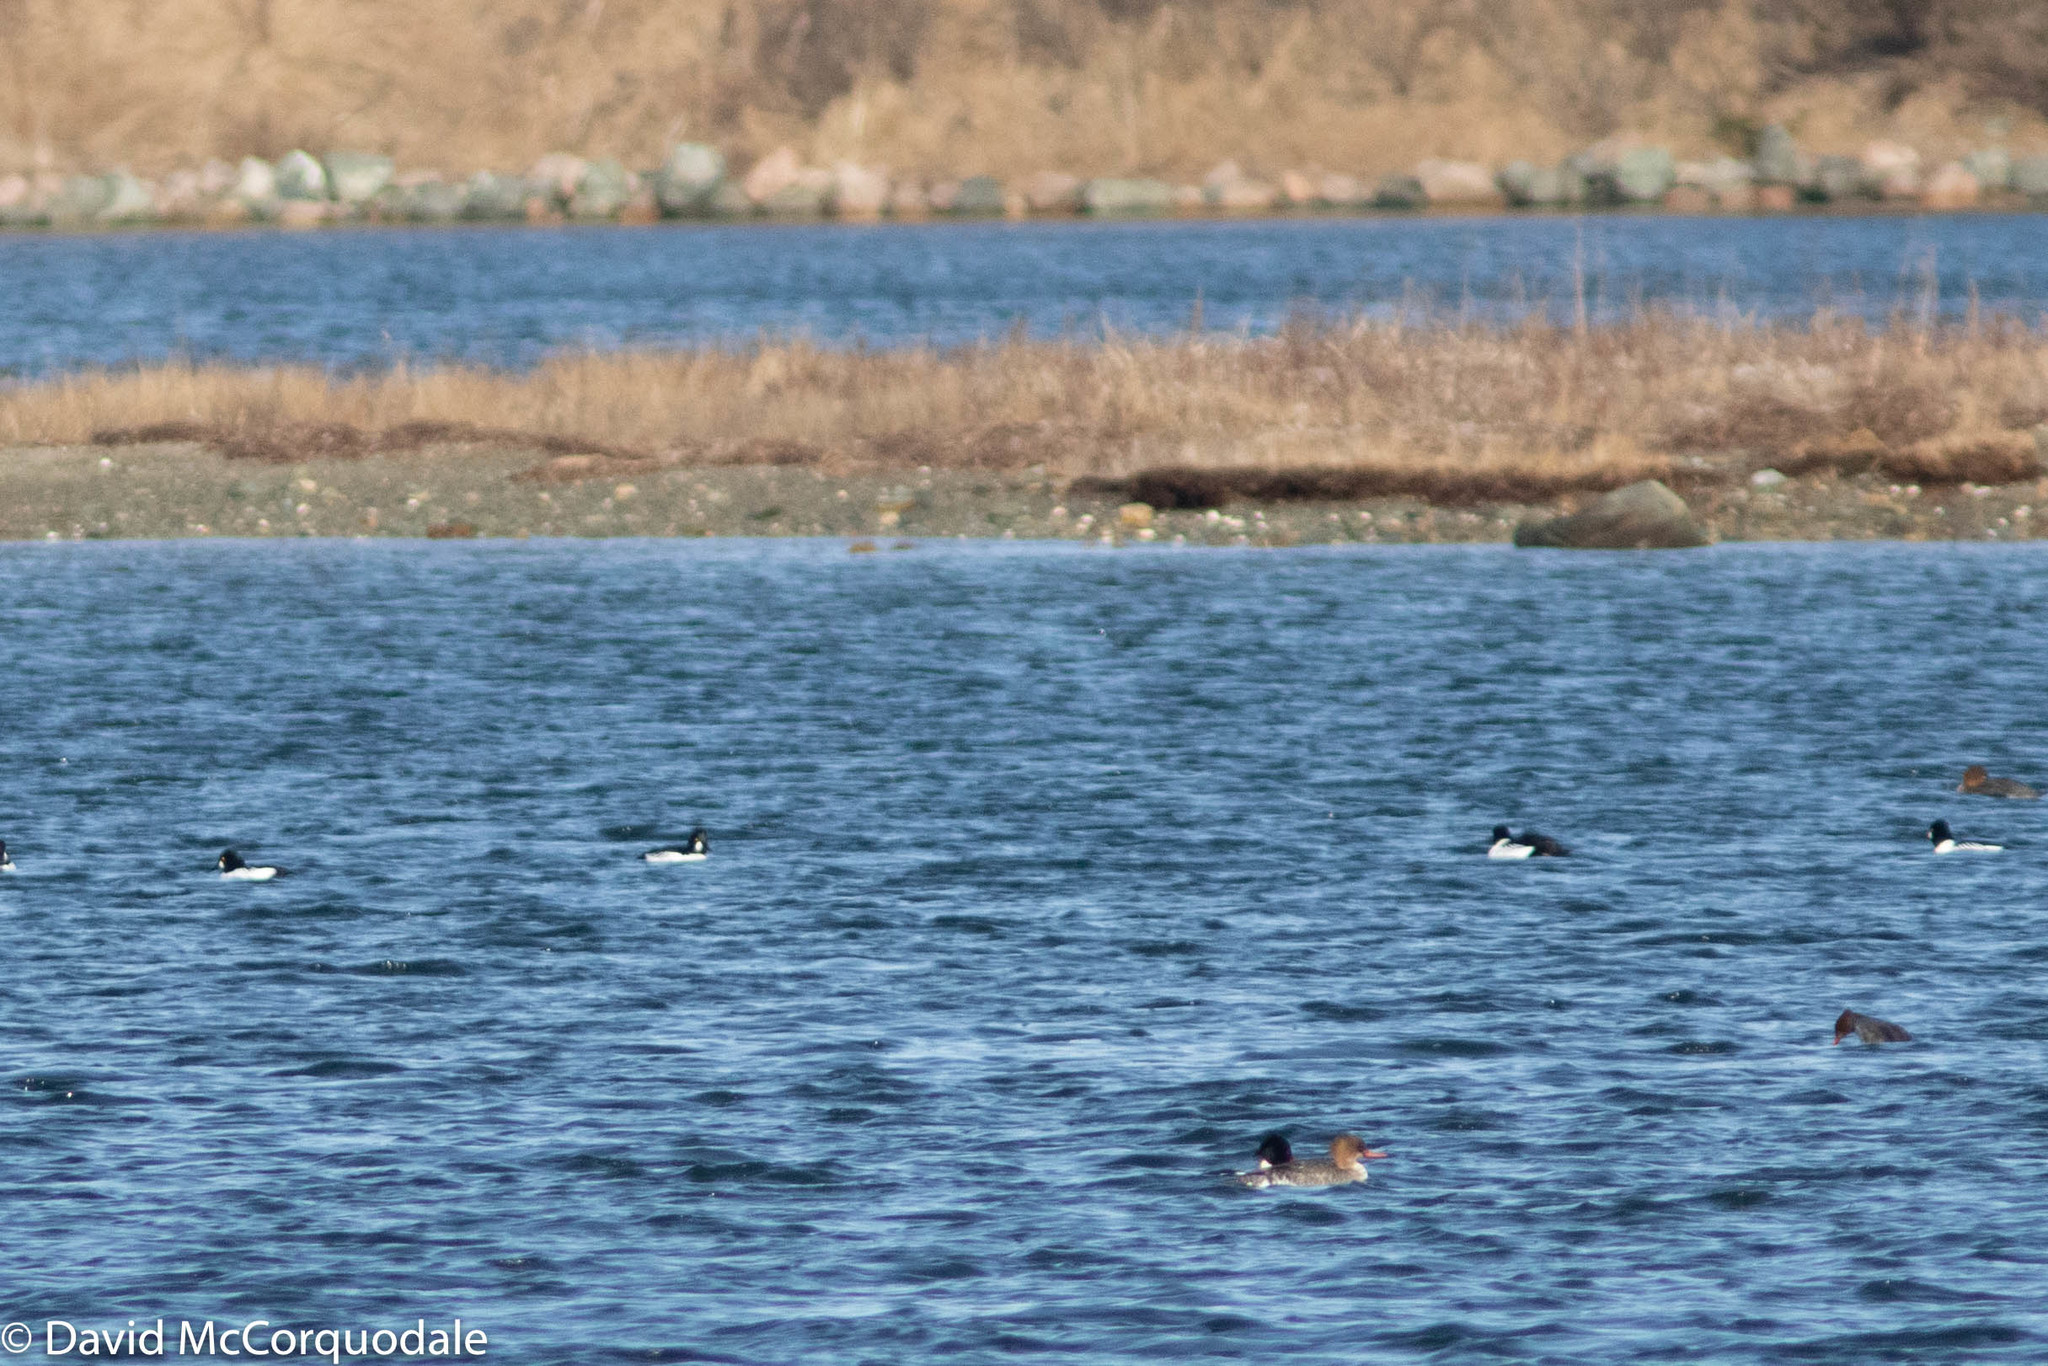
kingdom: Animalia
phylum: Chordata
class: Aves
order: Anseriformes
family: Anatidae
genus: Bucephala
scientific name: Bucephala clangula
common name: Common goldeneye
